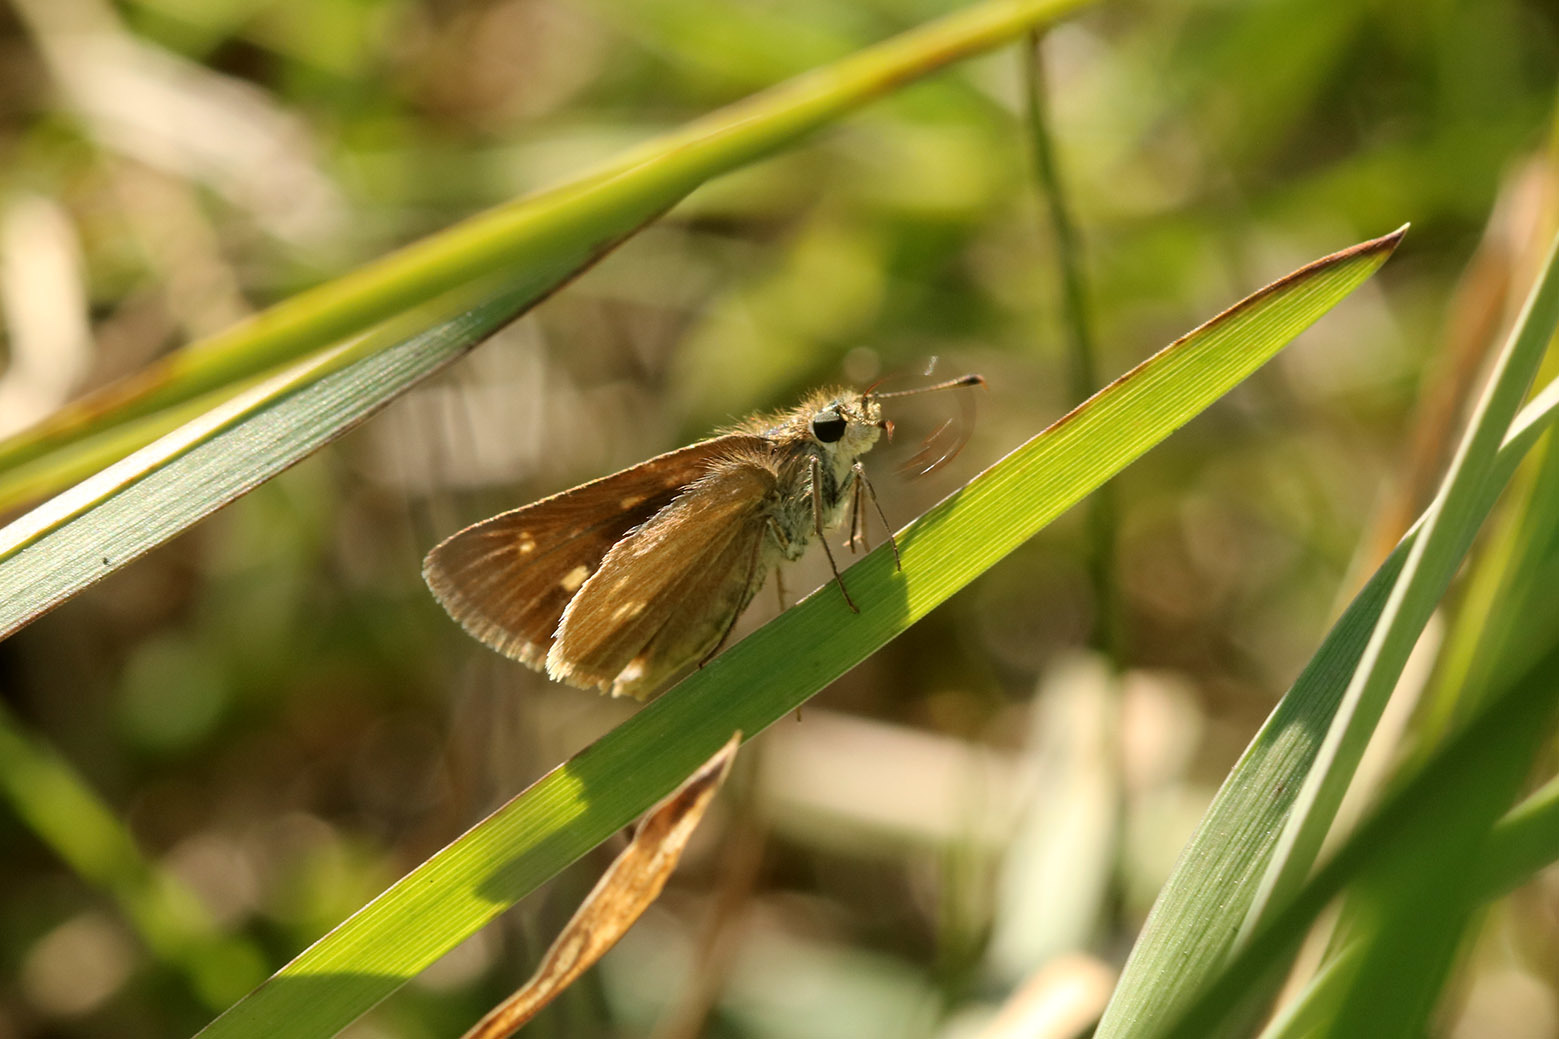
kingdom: Animalia
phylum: Arthropoda
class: Insecta
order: Lepidoptera
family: Hesperiidae
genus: Nastra
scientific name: Nastra ethologus
